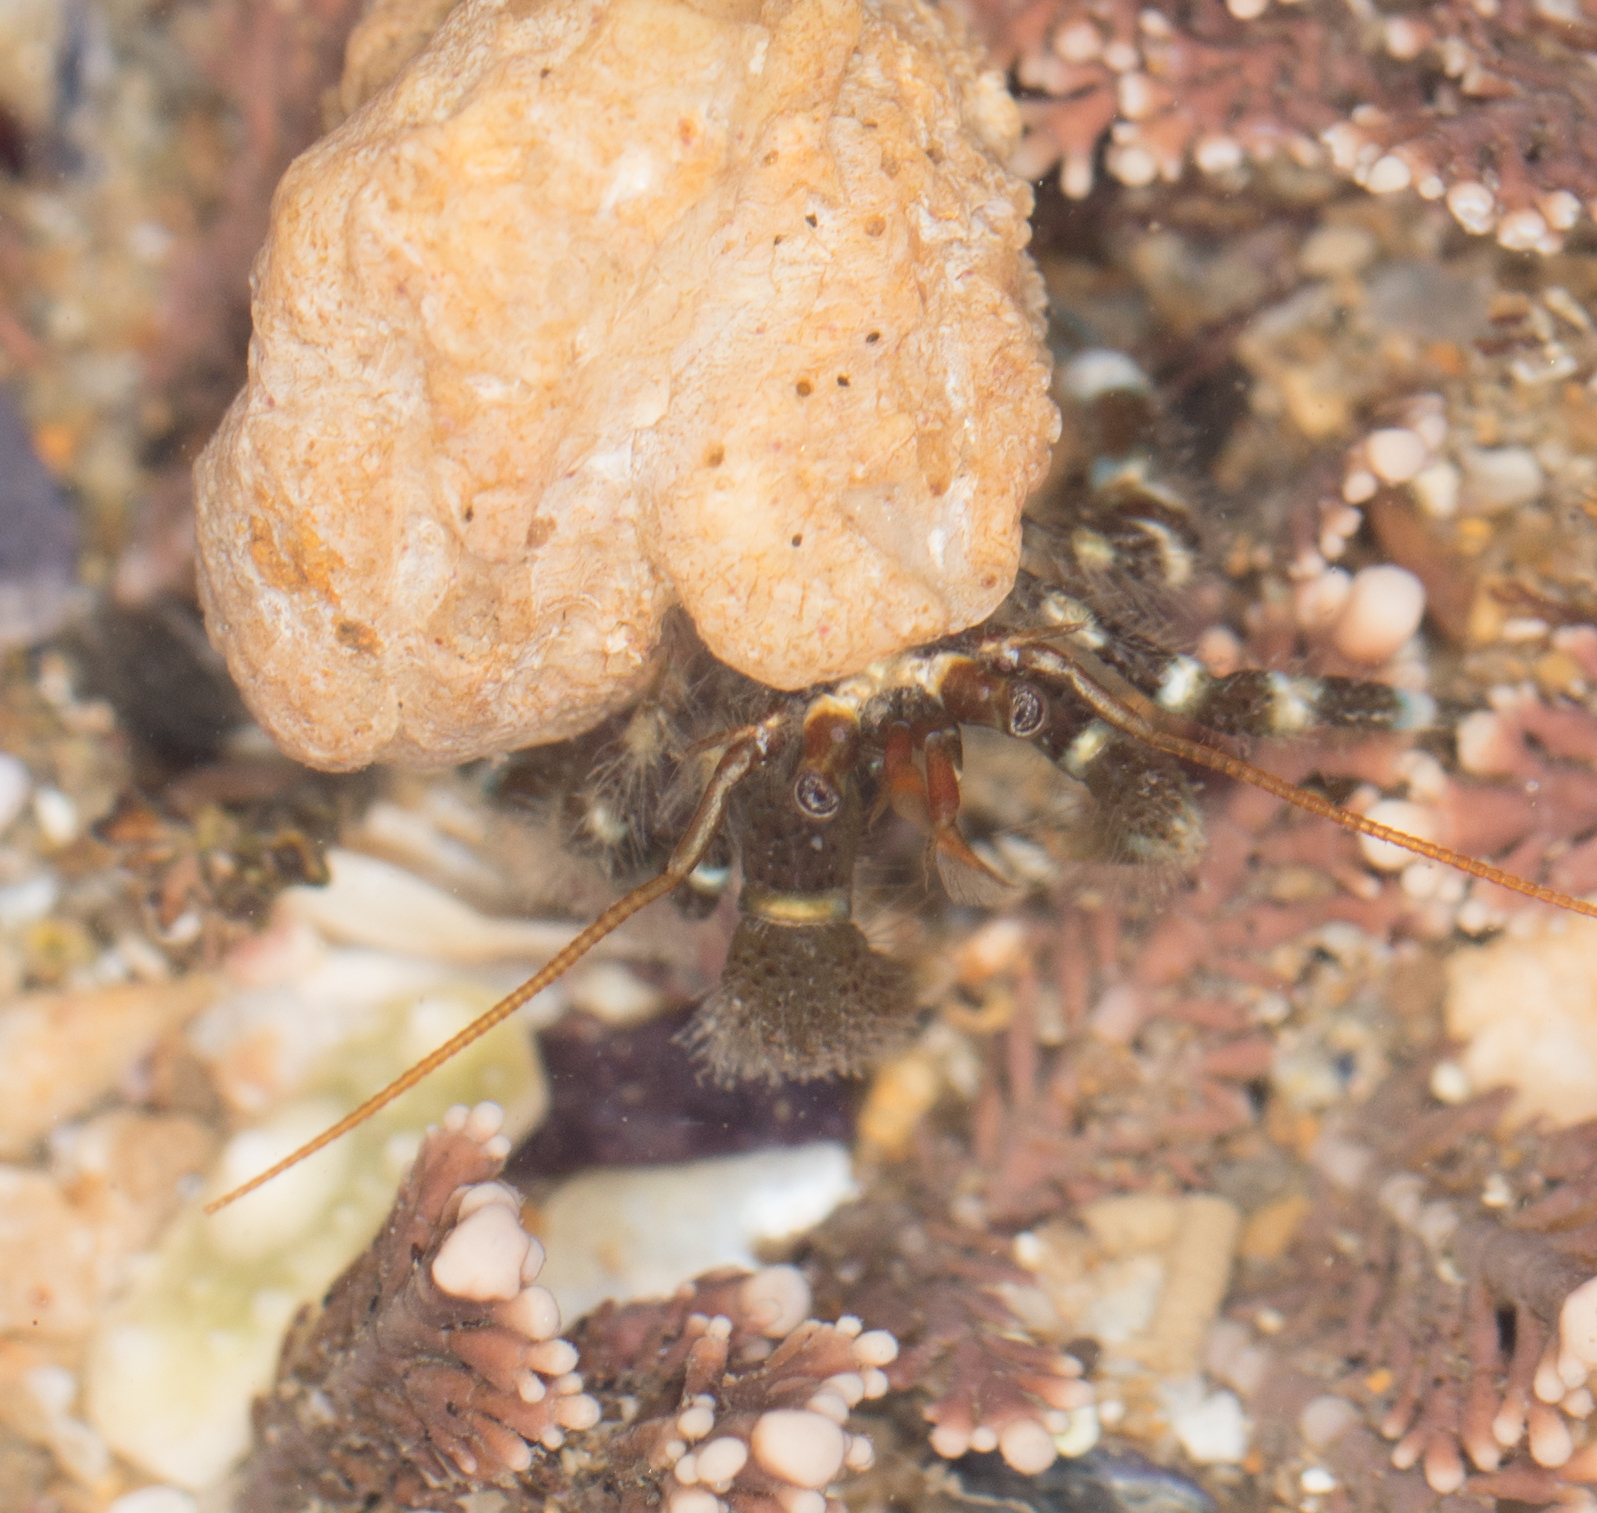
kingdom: Animalia
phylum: Arthropoda
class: Malacostraca
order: Decapoda
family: Paguridae
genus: Pagurus
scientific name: Pagurus samuelis
